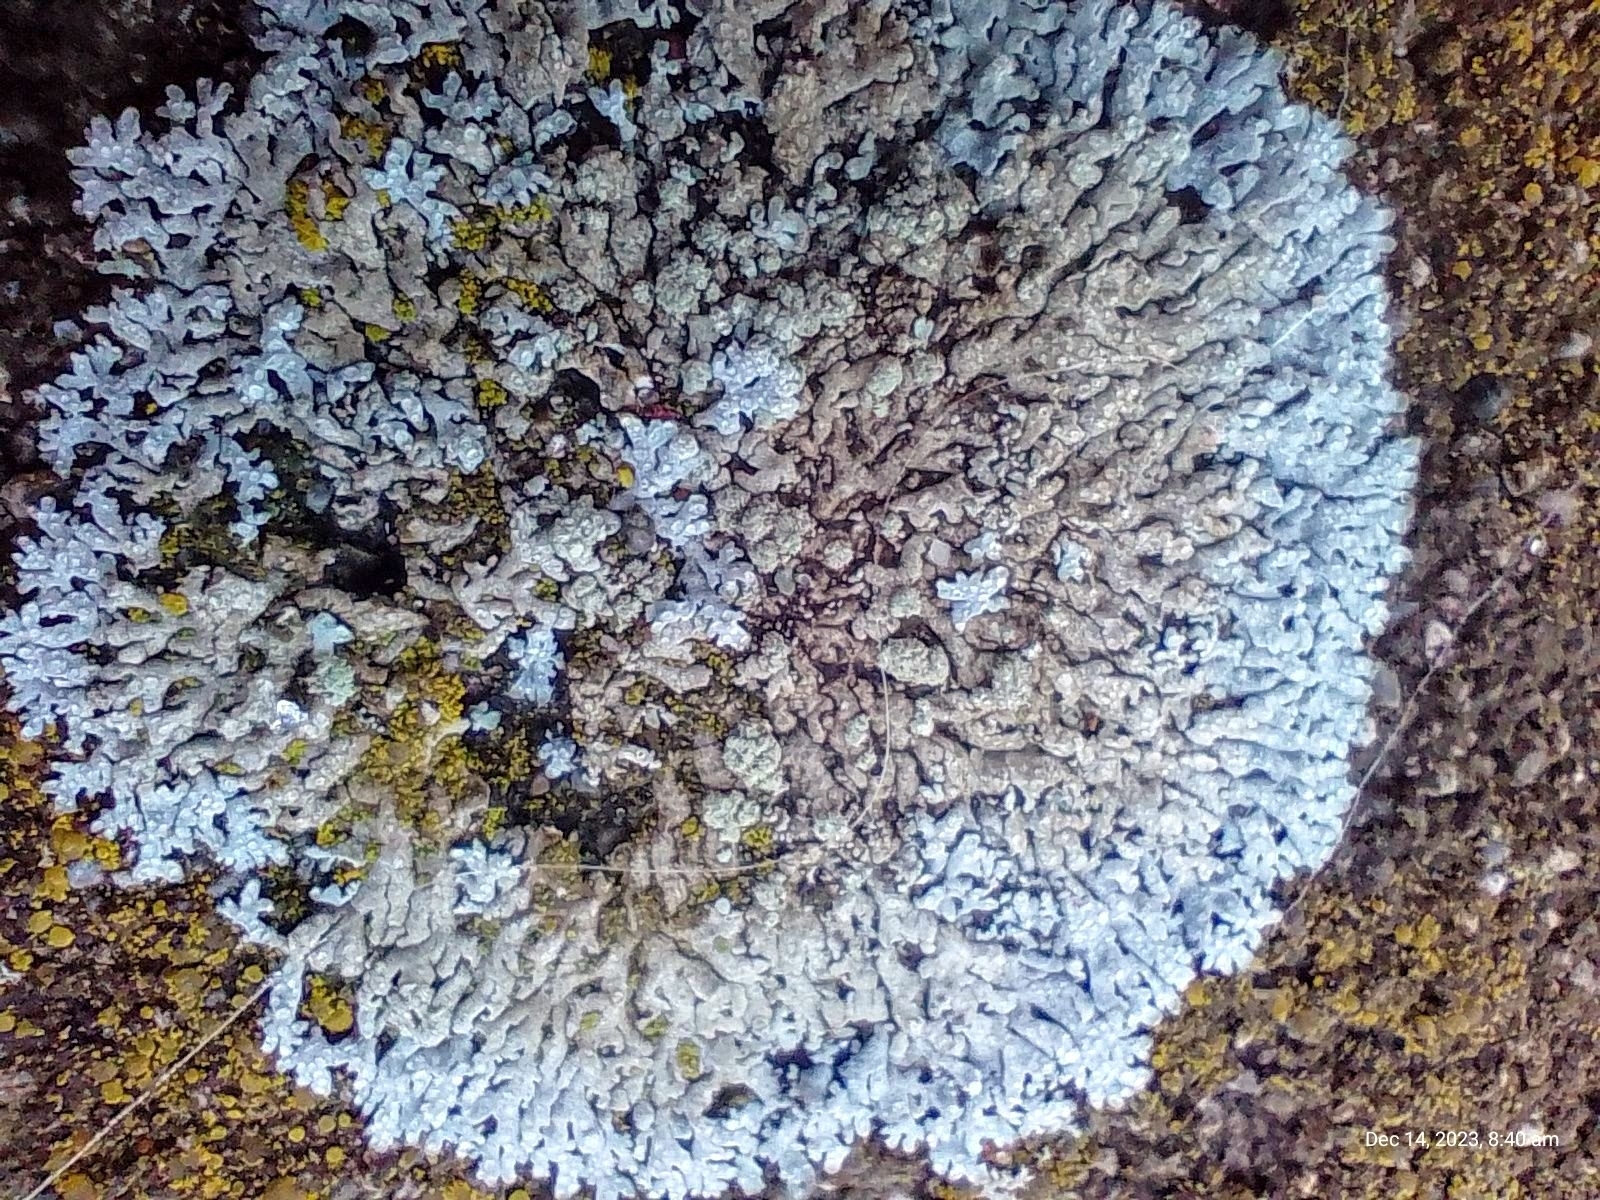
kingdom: Fungi
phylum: Ascomycota
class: Lecanoromycetes
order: Caliciales
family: Physciaceae
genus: Physcia
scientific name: Physcia caesia
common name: Blue-gray rosette lichen
